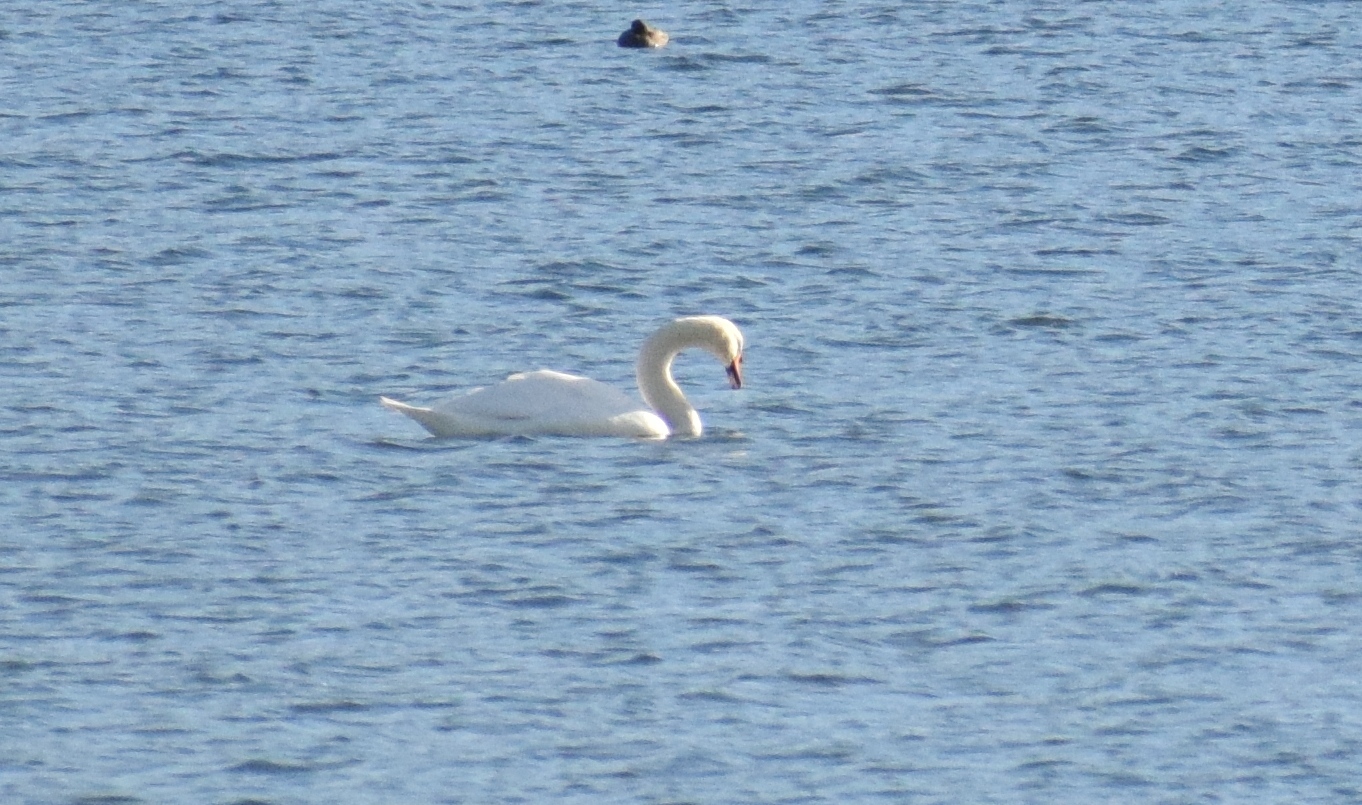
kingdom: Animalia
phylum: Chordata
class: Aves
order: Anseriformes
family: Anatidae
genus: Cygnus
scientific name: Cygnus olor
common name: Mute swan
